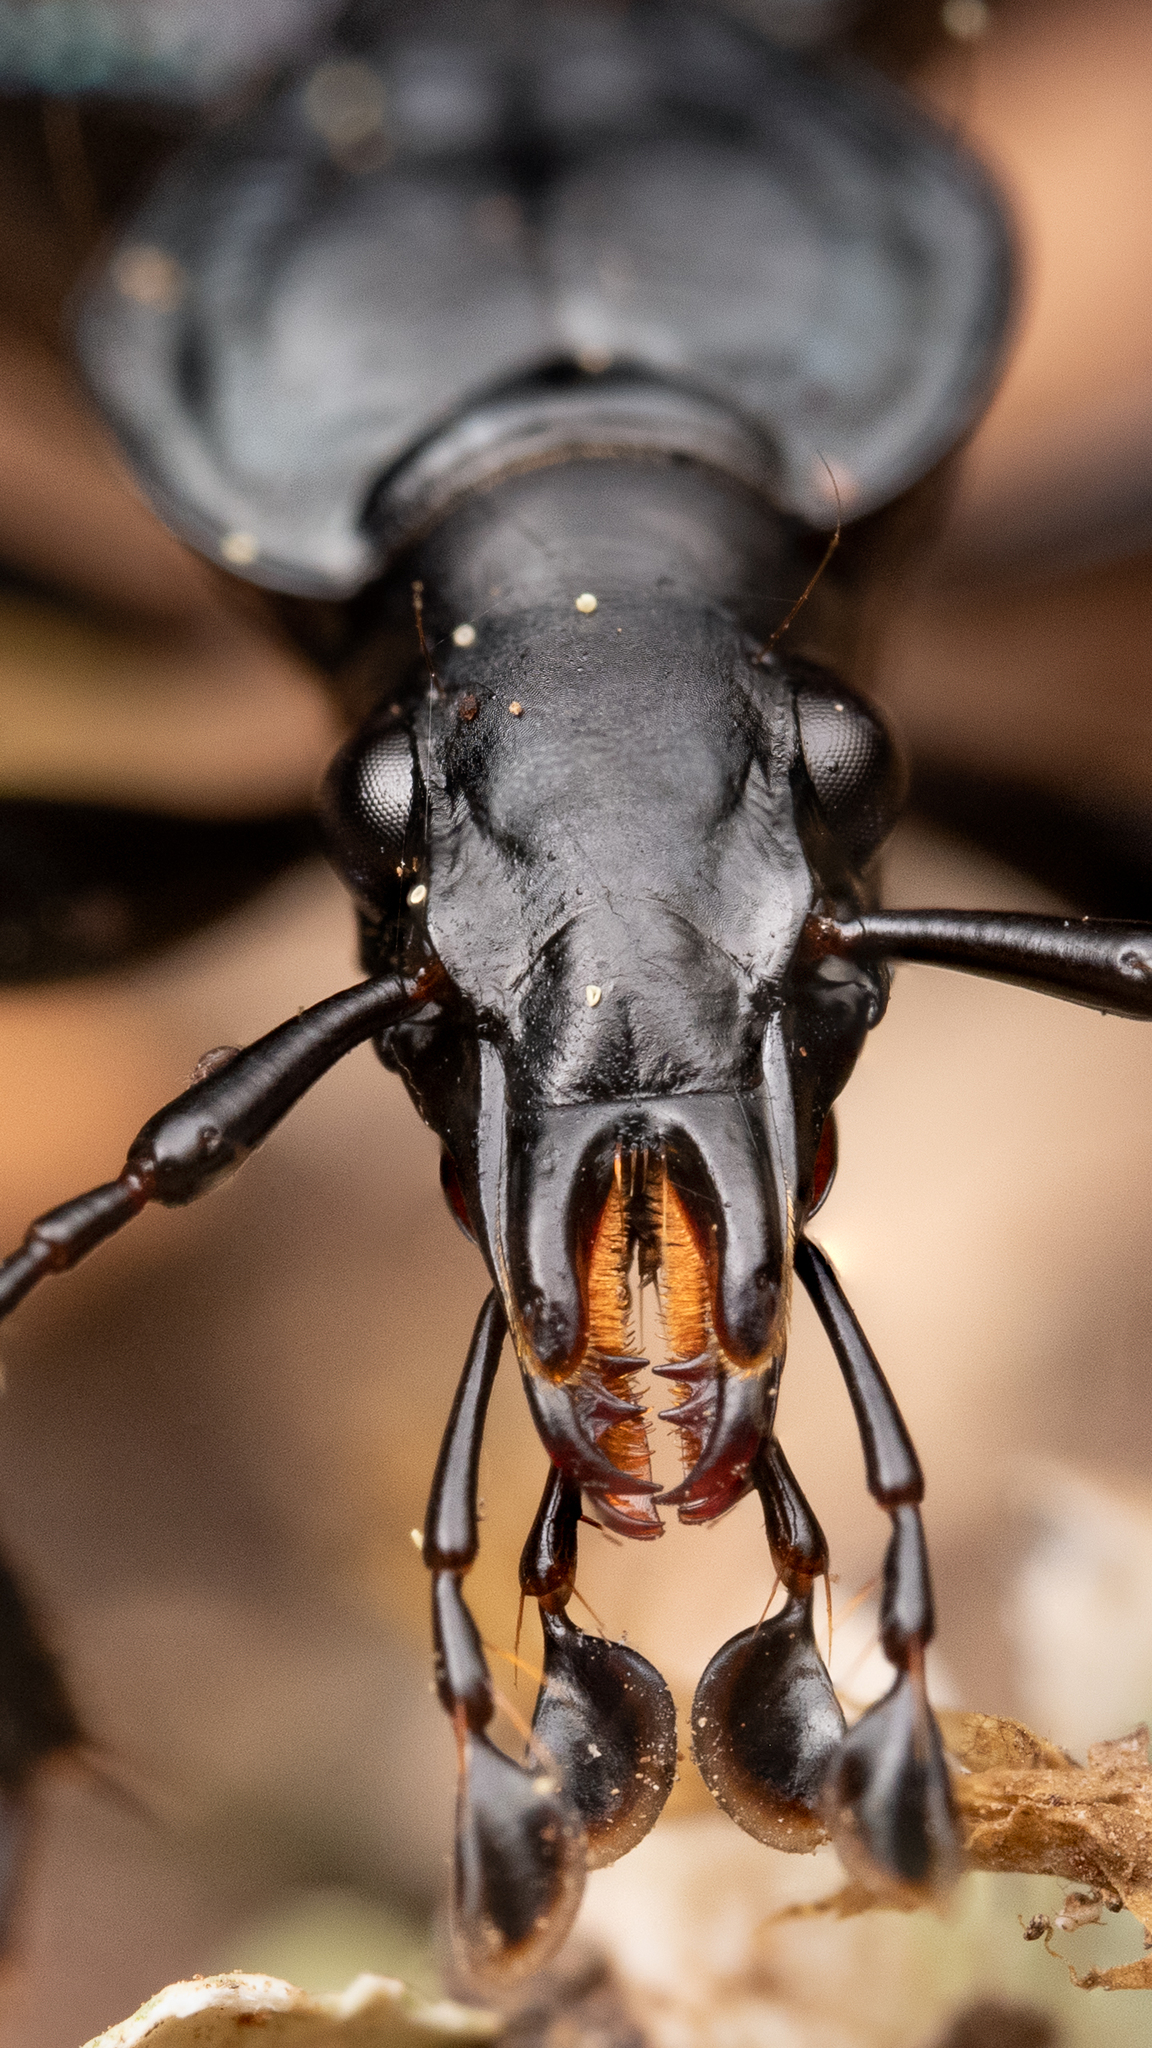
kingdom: Animalia
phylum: Arthropoda
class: Insecta
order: Coleoptera
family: Carabidae
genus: Scaphinotus
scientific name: Scaphinotus marginatus
